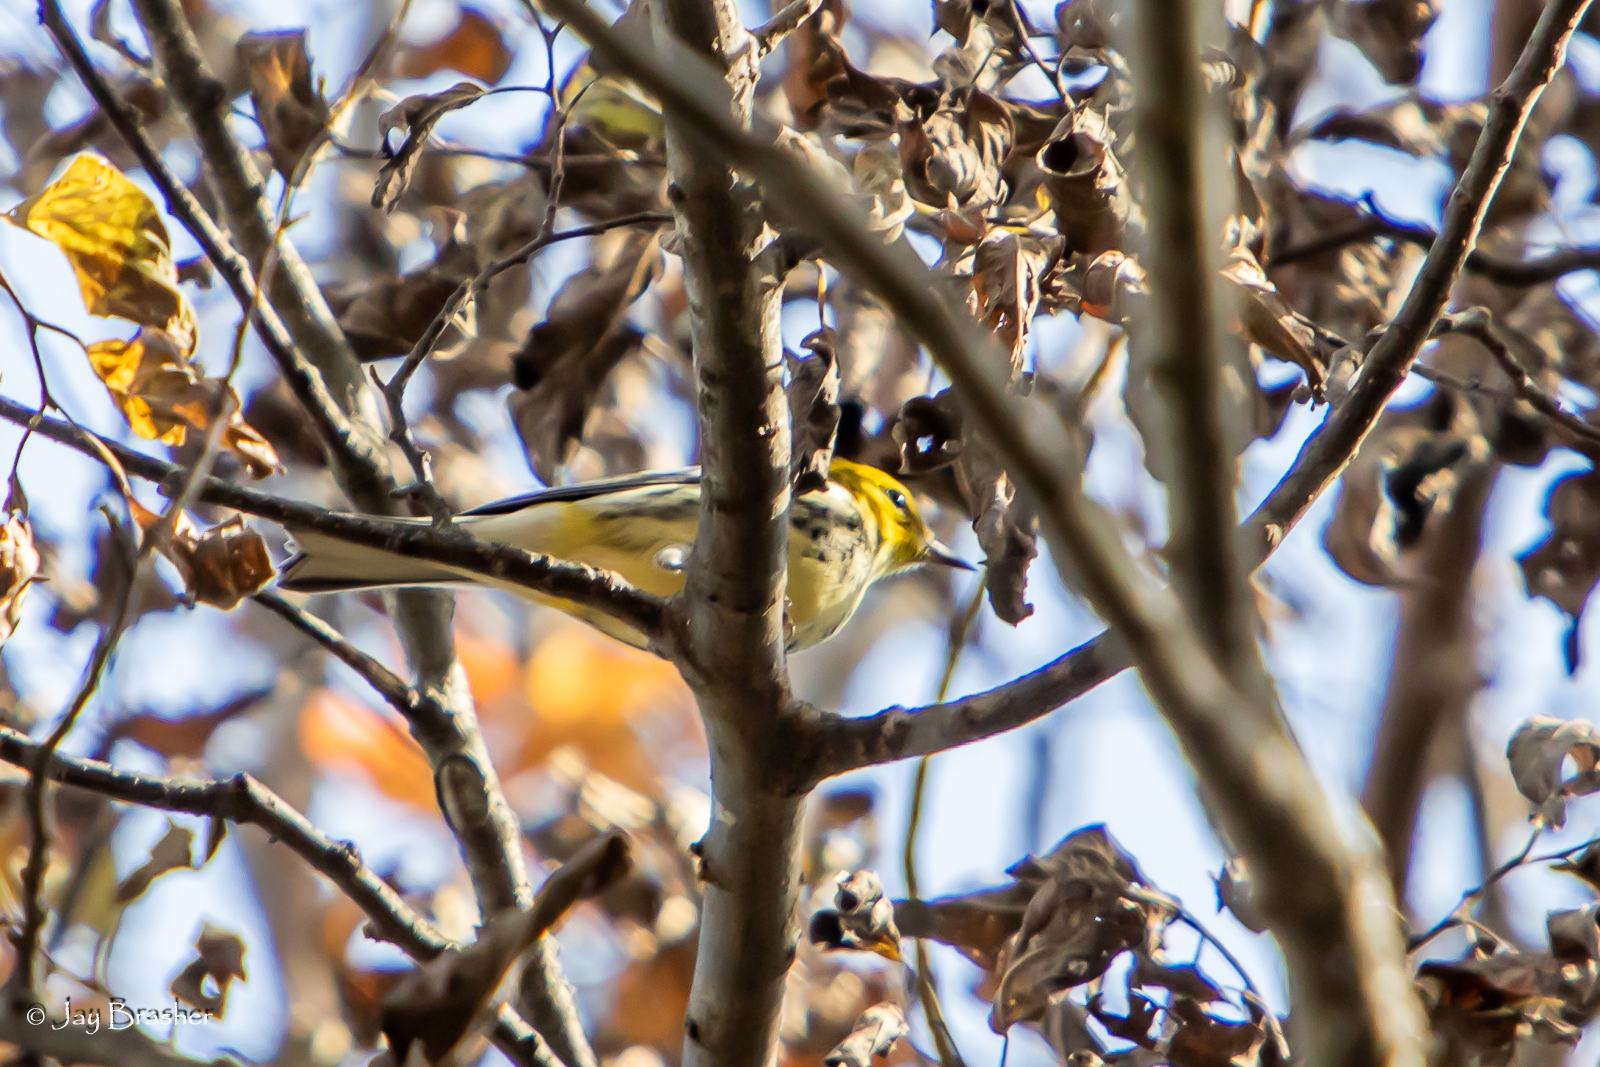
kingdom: Animalia
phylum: Chordata
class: Aves
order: Passeriformes
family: Parulidae
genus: Setophaga
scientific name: Setophaga virens
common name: Black-throated green warbler
